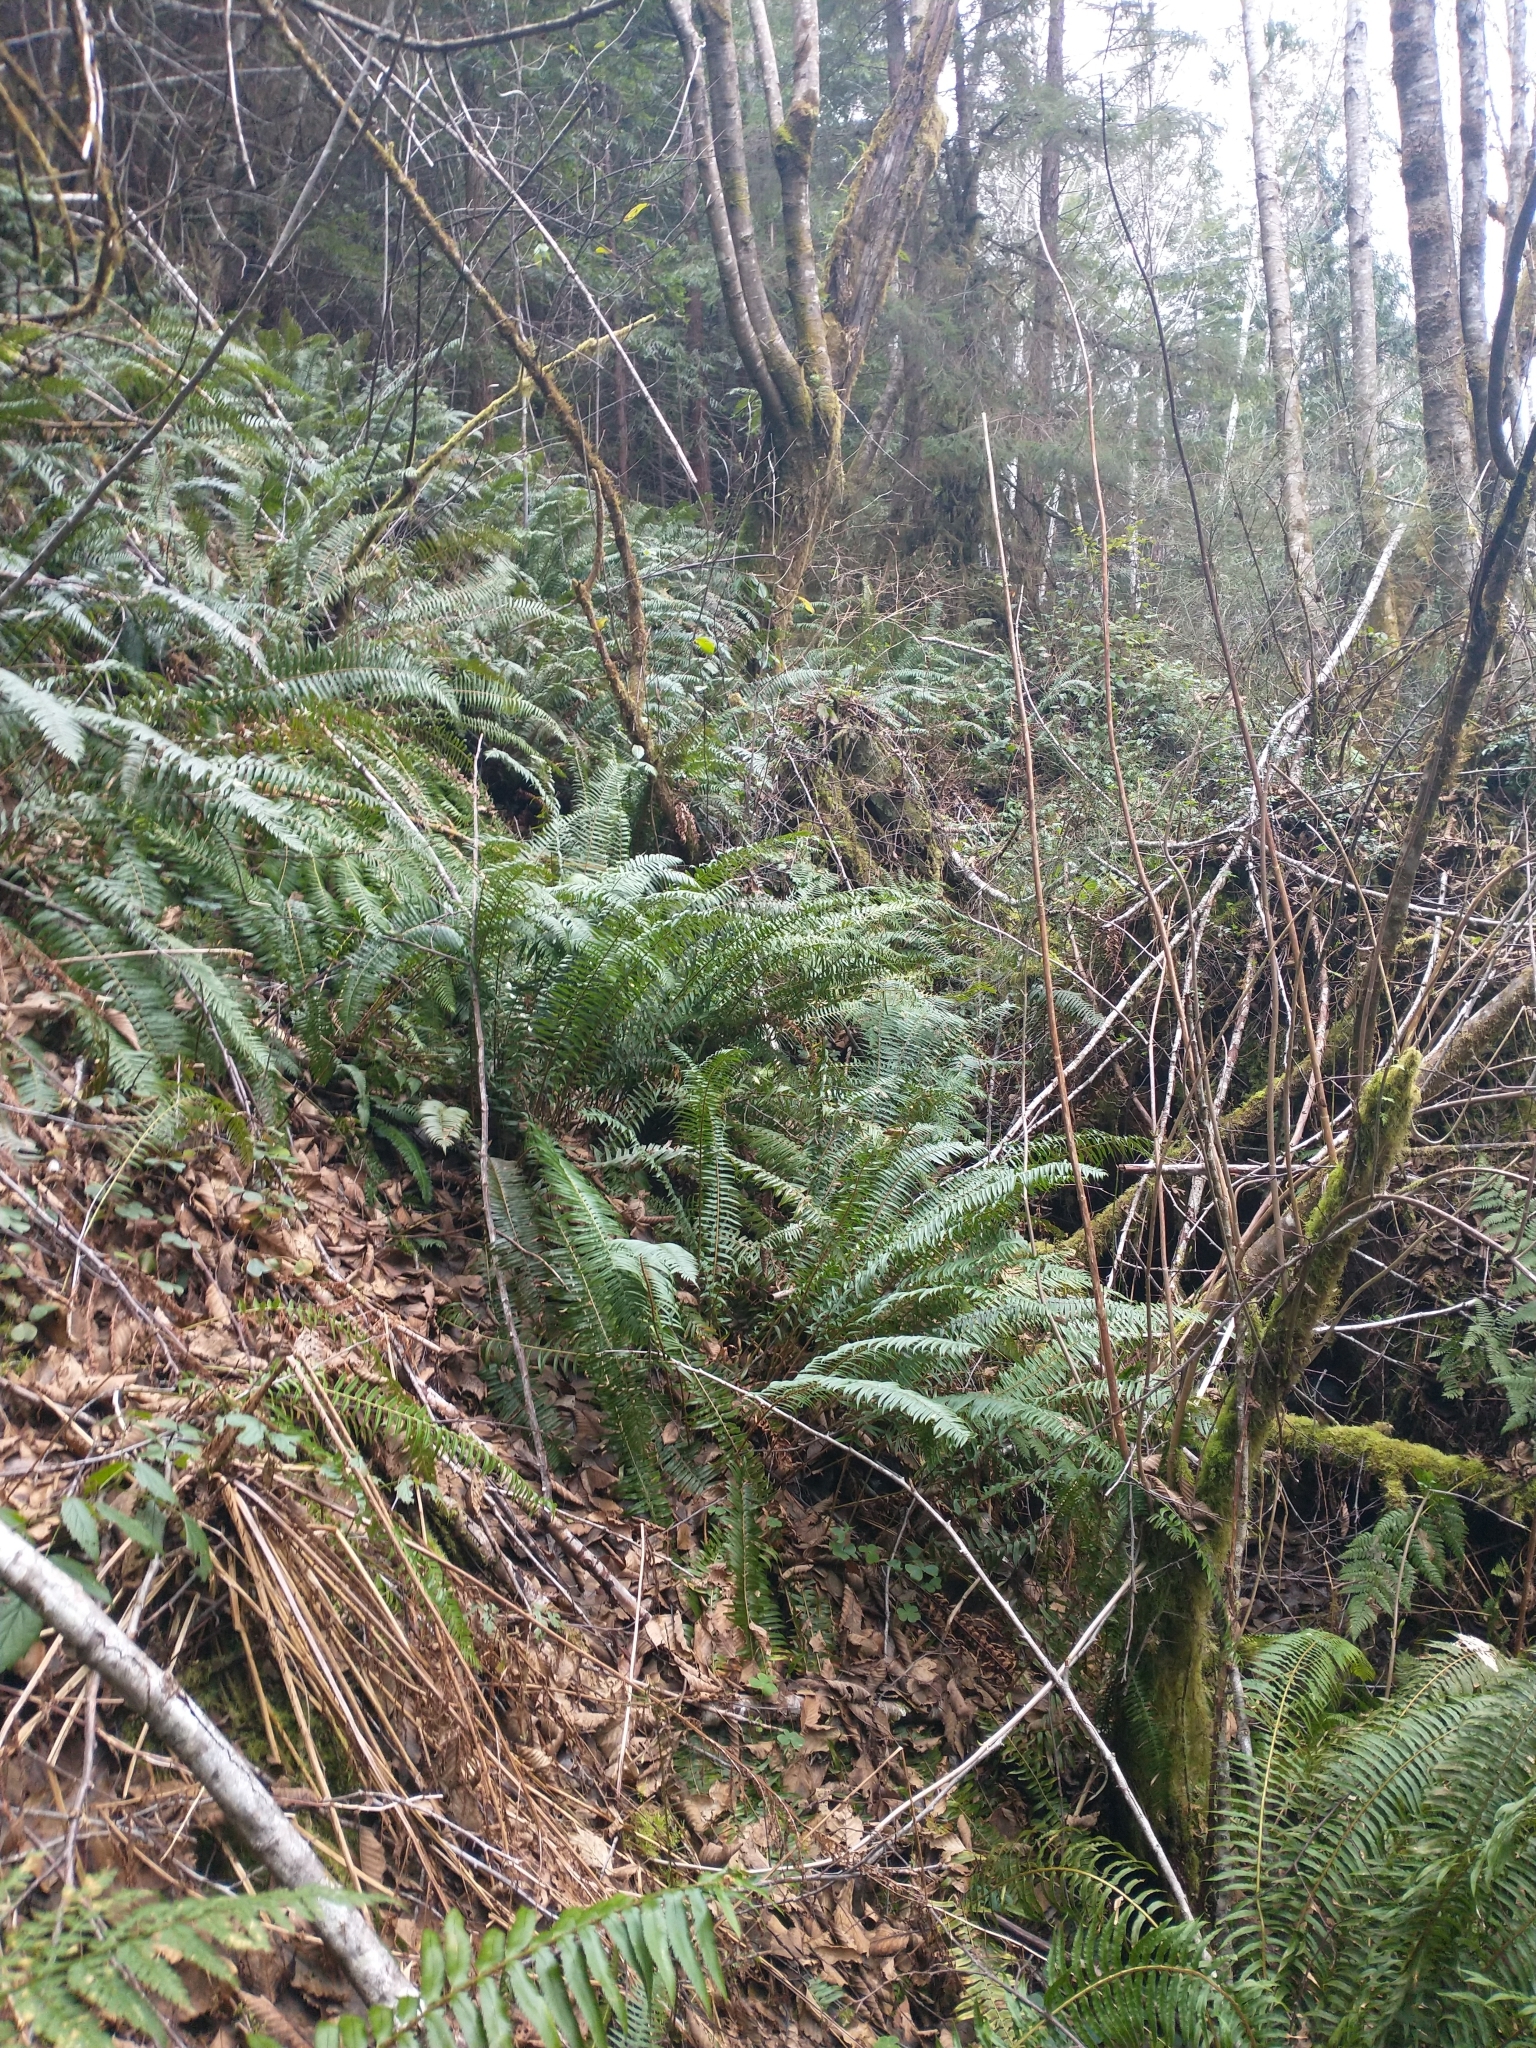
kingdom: Plantae
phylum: Tracheophyta
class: Polypodiopsida
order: Polypodiales
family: Dryopteridaceae
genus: Polystichum
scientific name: Polystichum munitum
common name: Western sword-fern
